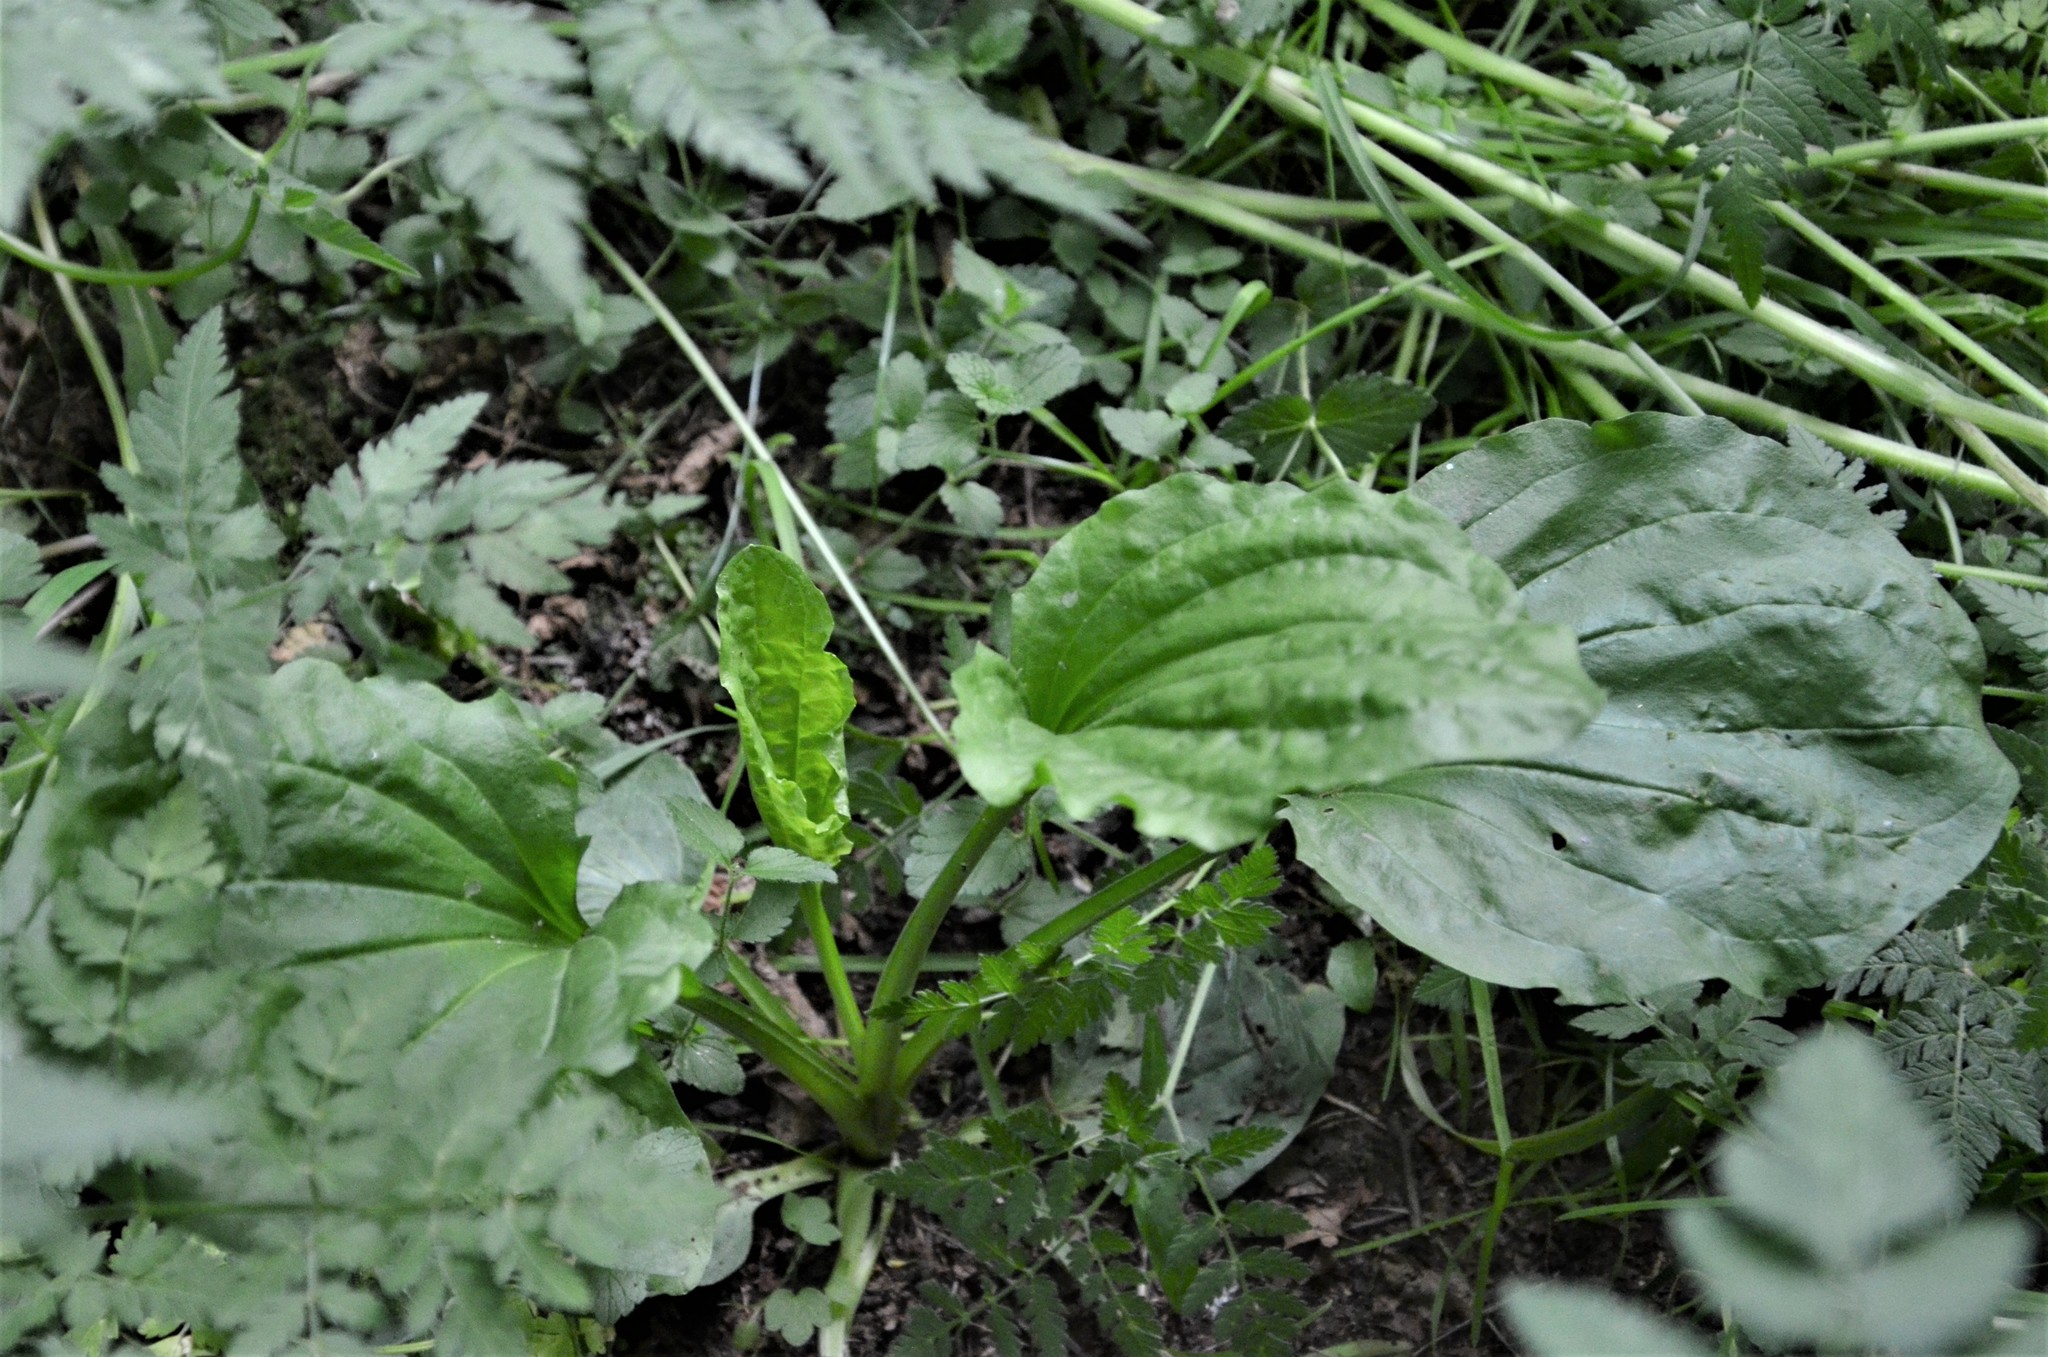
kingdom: Plantae
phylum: Tracheophyta
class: Magnoliopsida
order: Lamiales
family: Plantaginaceae
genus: Plantago
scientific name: Plantago major
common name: Common plantain
